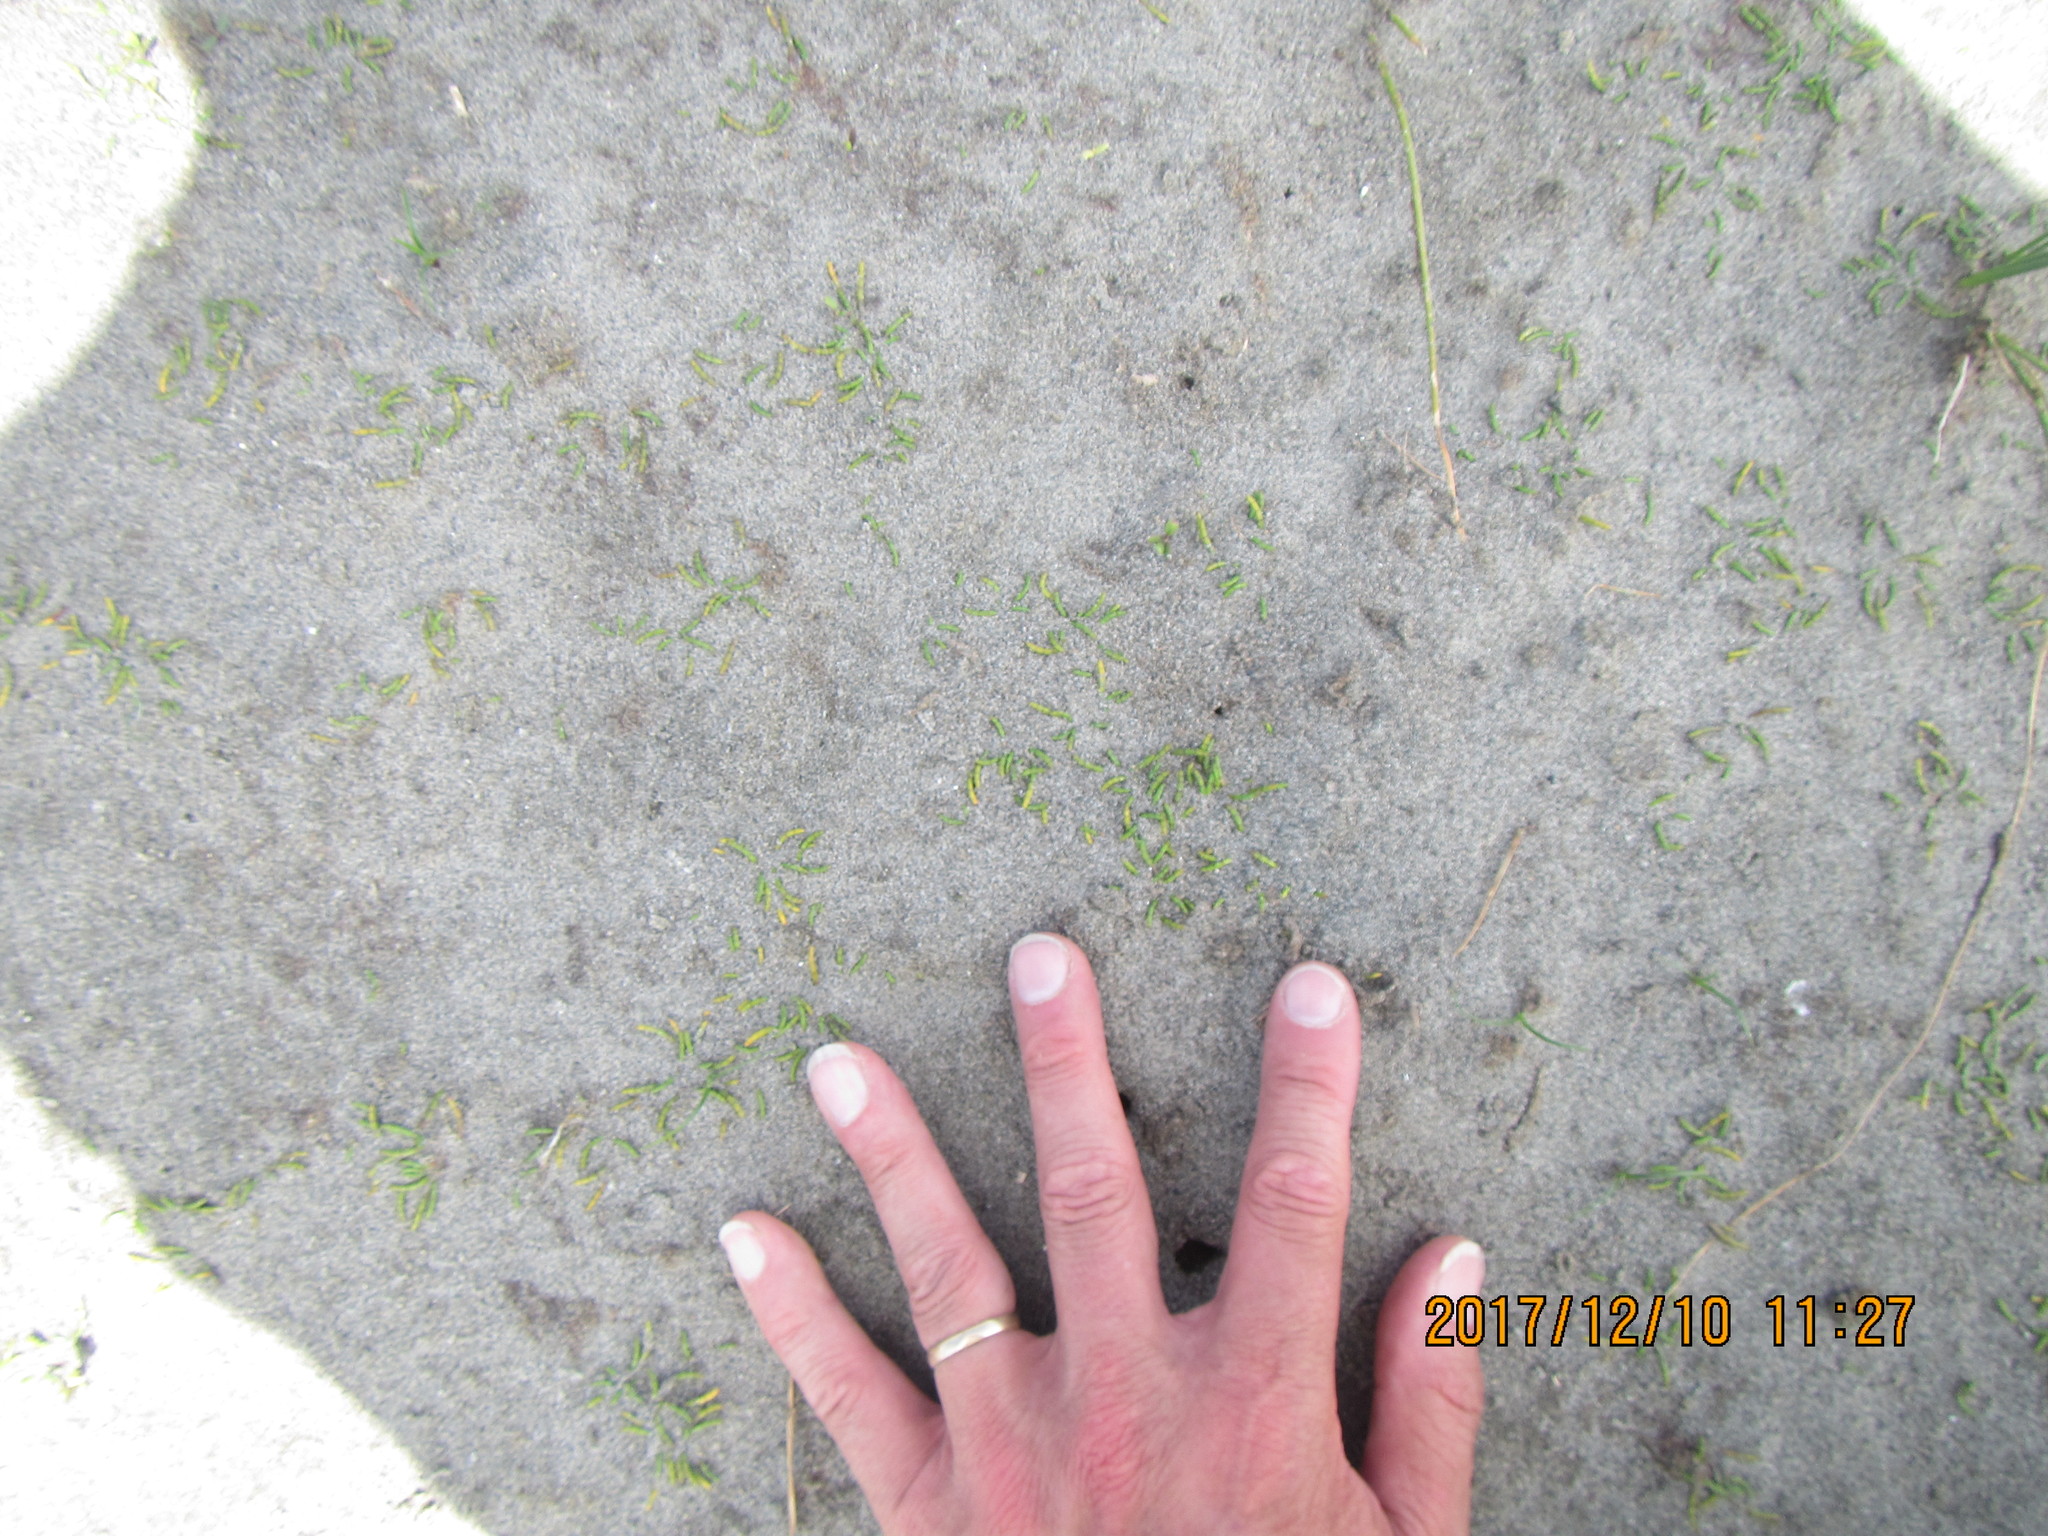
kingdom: Plantae
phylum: Tracheophyta
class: Magnoliopsida
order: Apiales
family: Apiaceae
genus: Lilaeopsis
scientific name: Lilaeopsis novae-zelandiae
